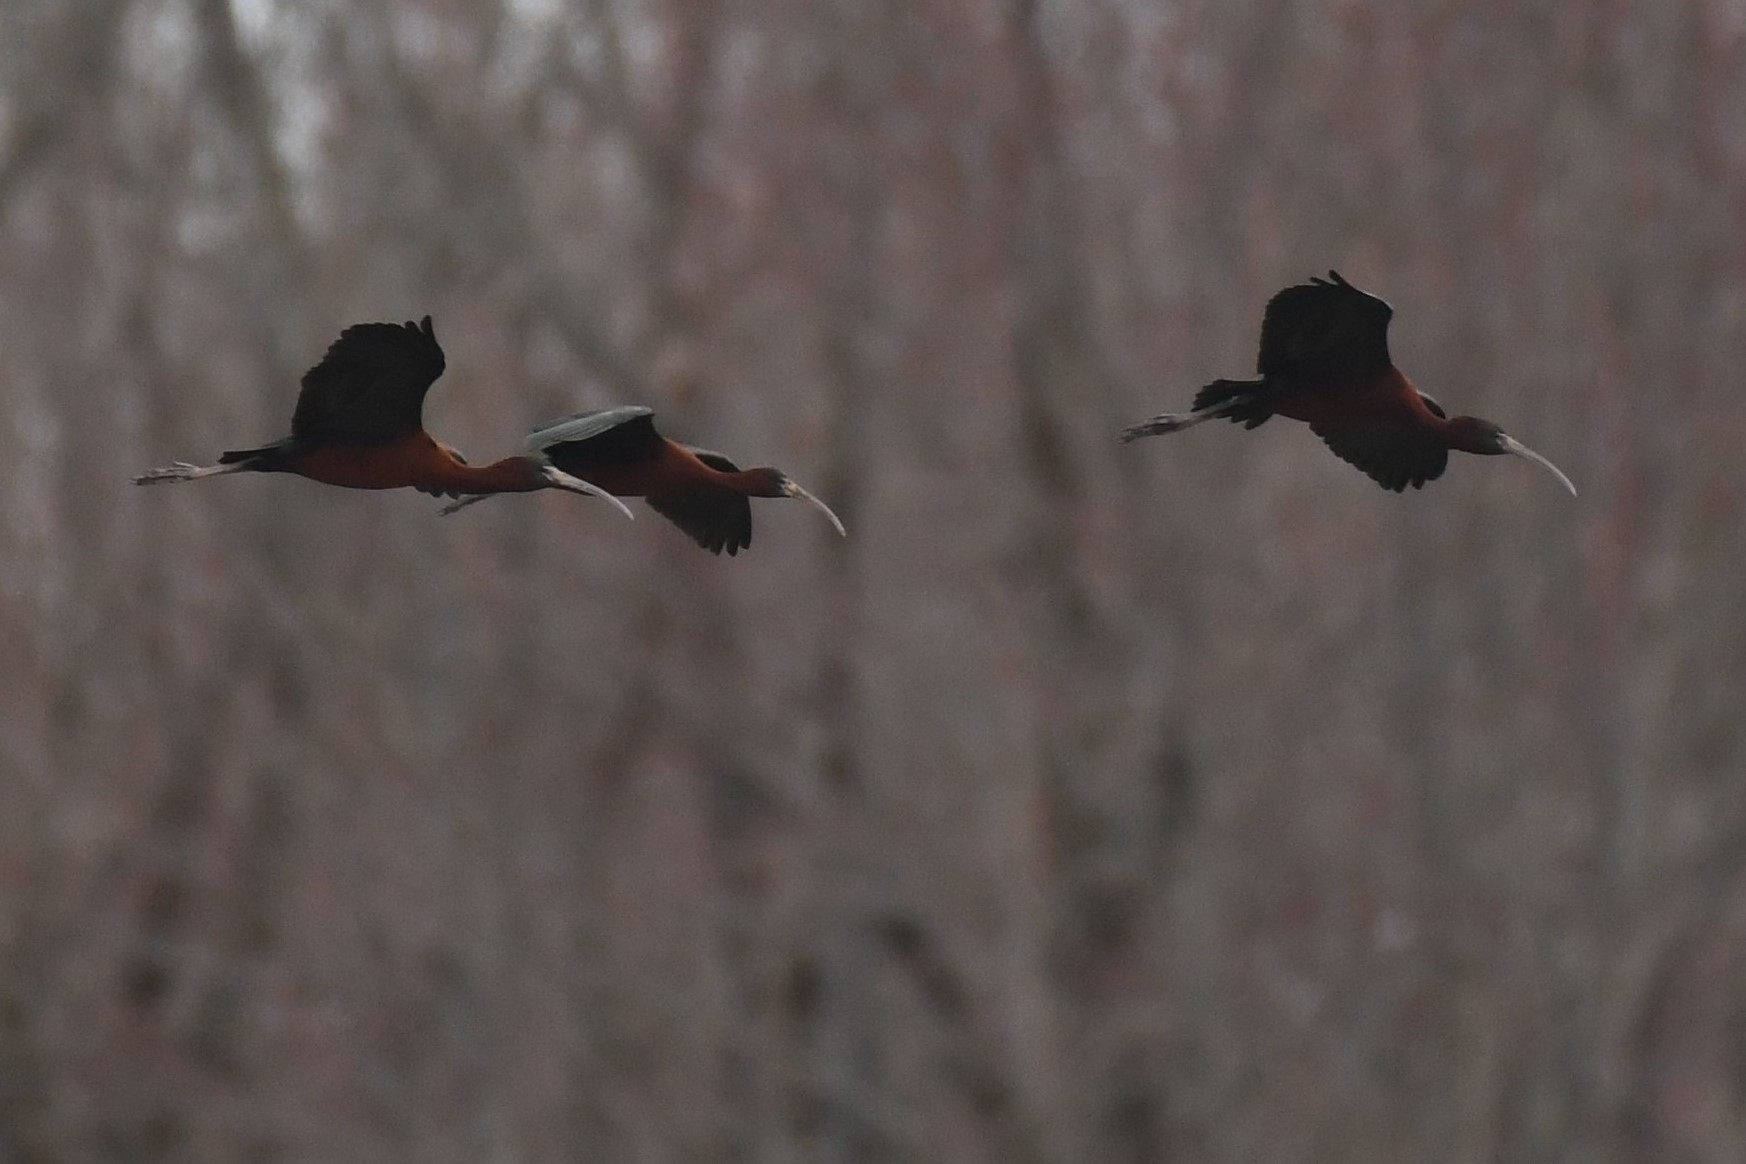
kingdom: Animalia
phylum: Chordata
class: Aves
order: Pelecaniformes
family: Threskiornithidae
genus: Plegadis
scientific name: Plegadis falcinellus
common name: Glossy ibis
